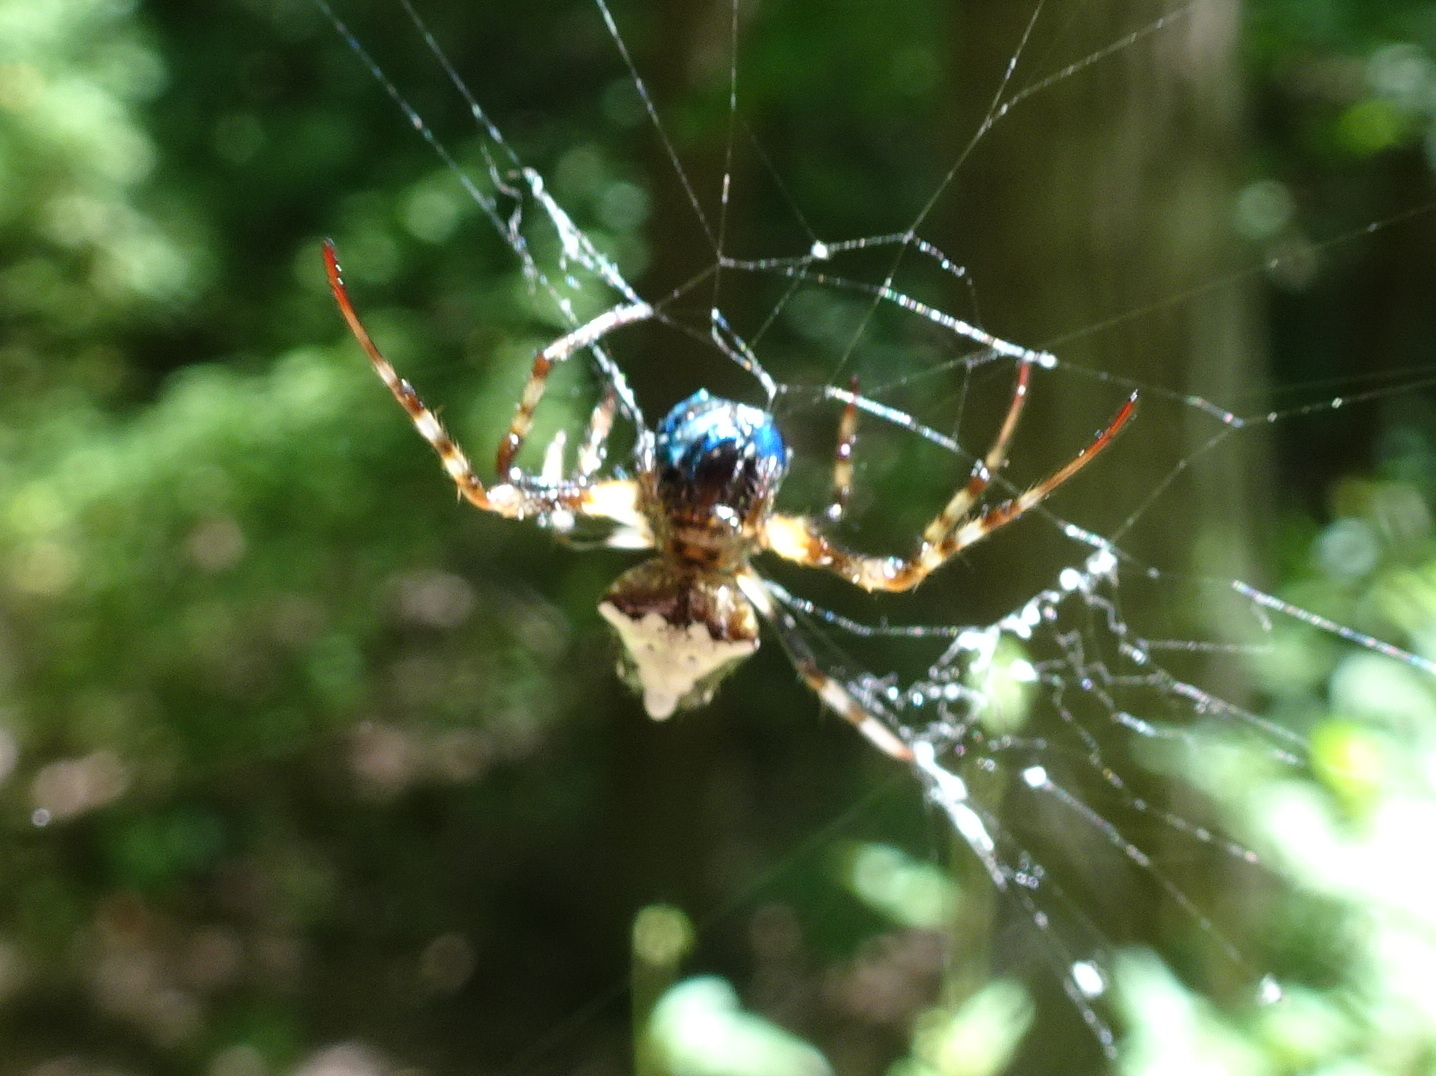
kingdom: Animalia
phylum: Arthropoda
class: Arachnida
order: Araneae
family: Araneidae
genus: Verrucosa
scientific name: Verrucosa arenata
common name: Orb weavers
